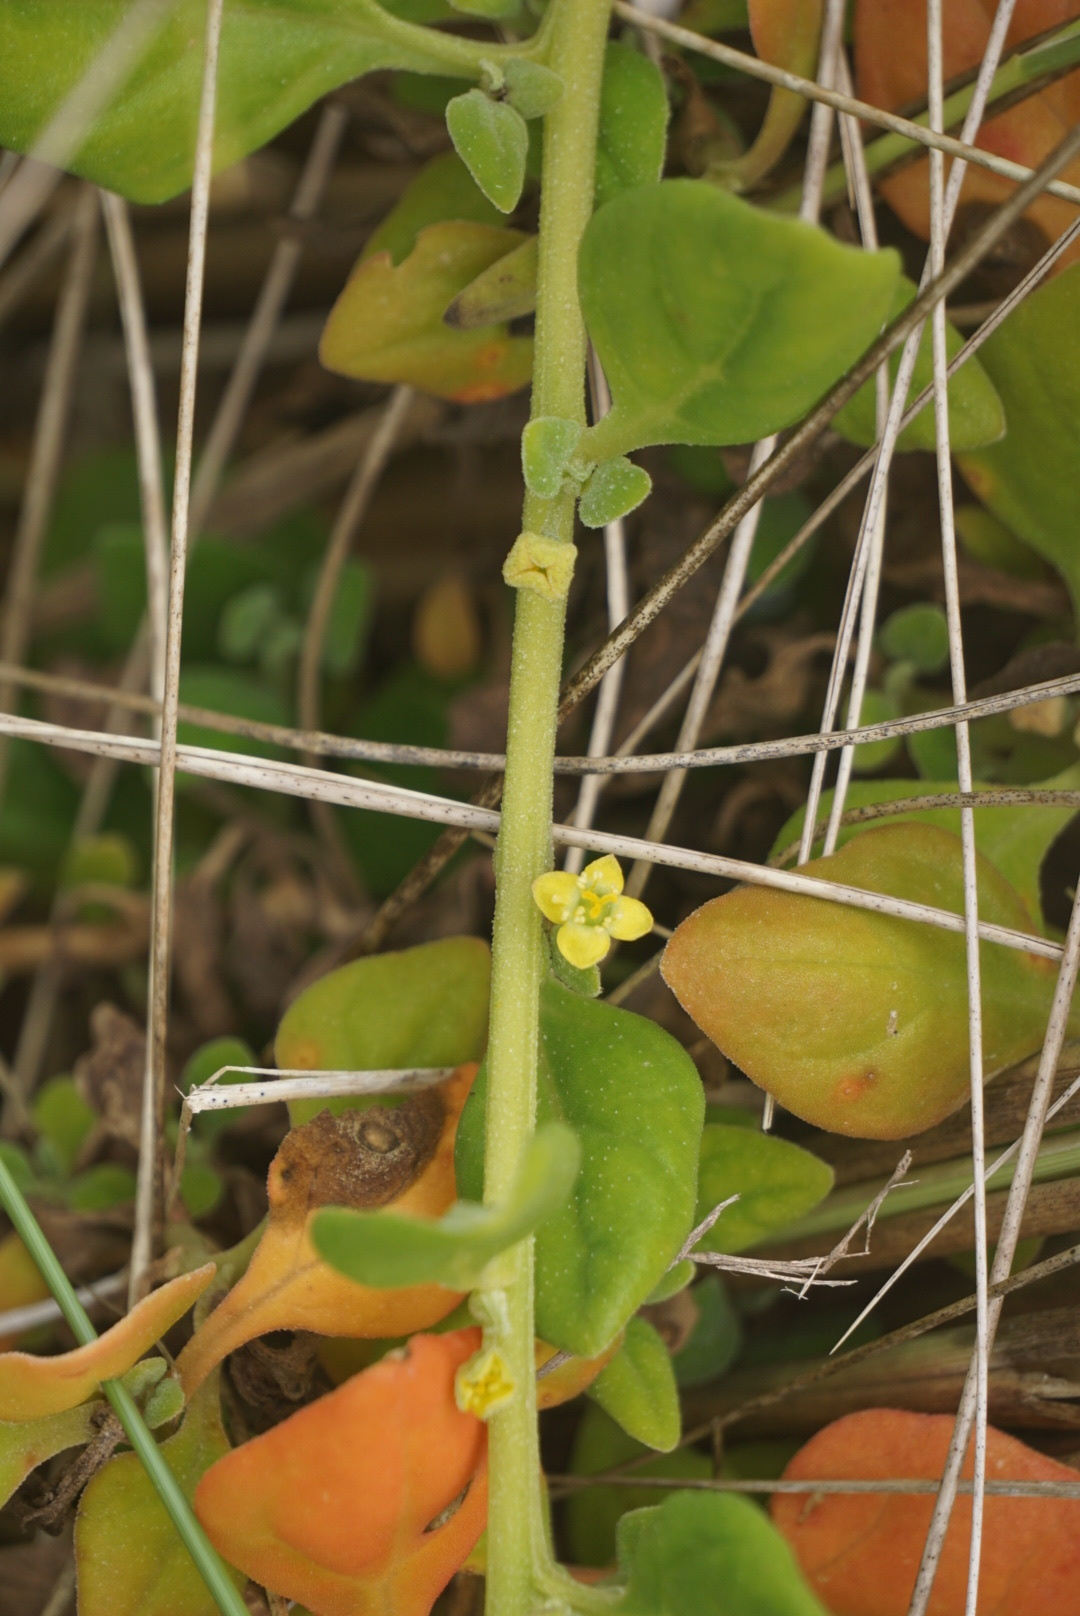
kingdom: Plantae
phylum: Tracheophyta
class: Magnoliopsida
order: Caryophyllales
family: Aizoaceae
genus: Tetragonia
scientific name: Tetragonia implexicoma
